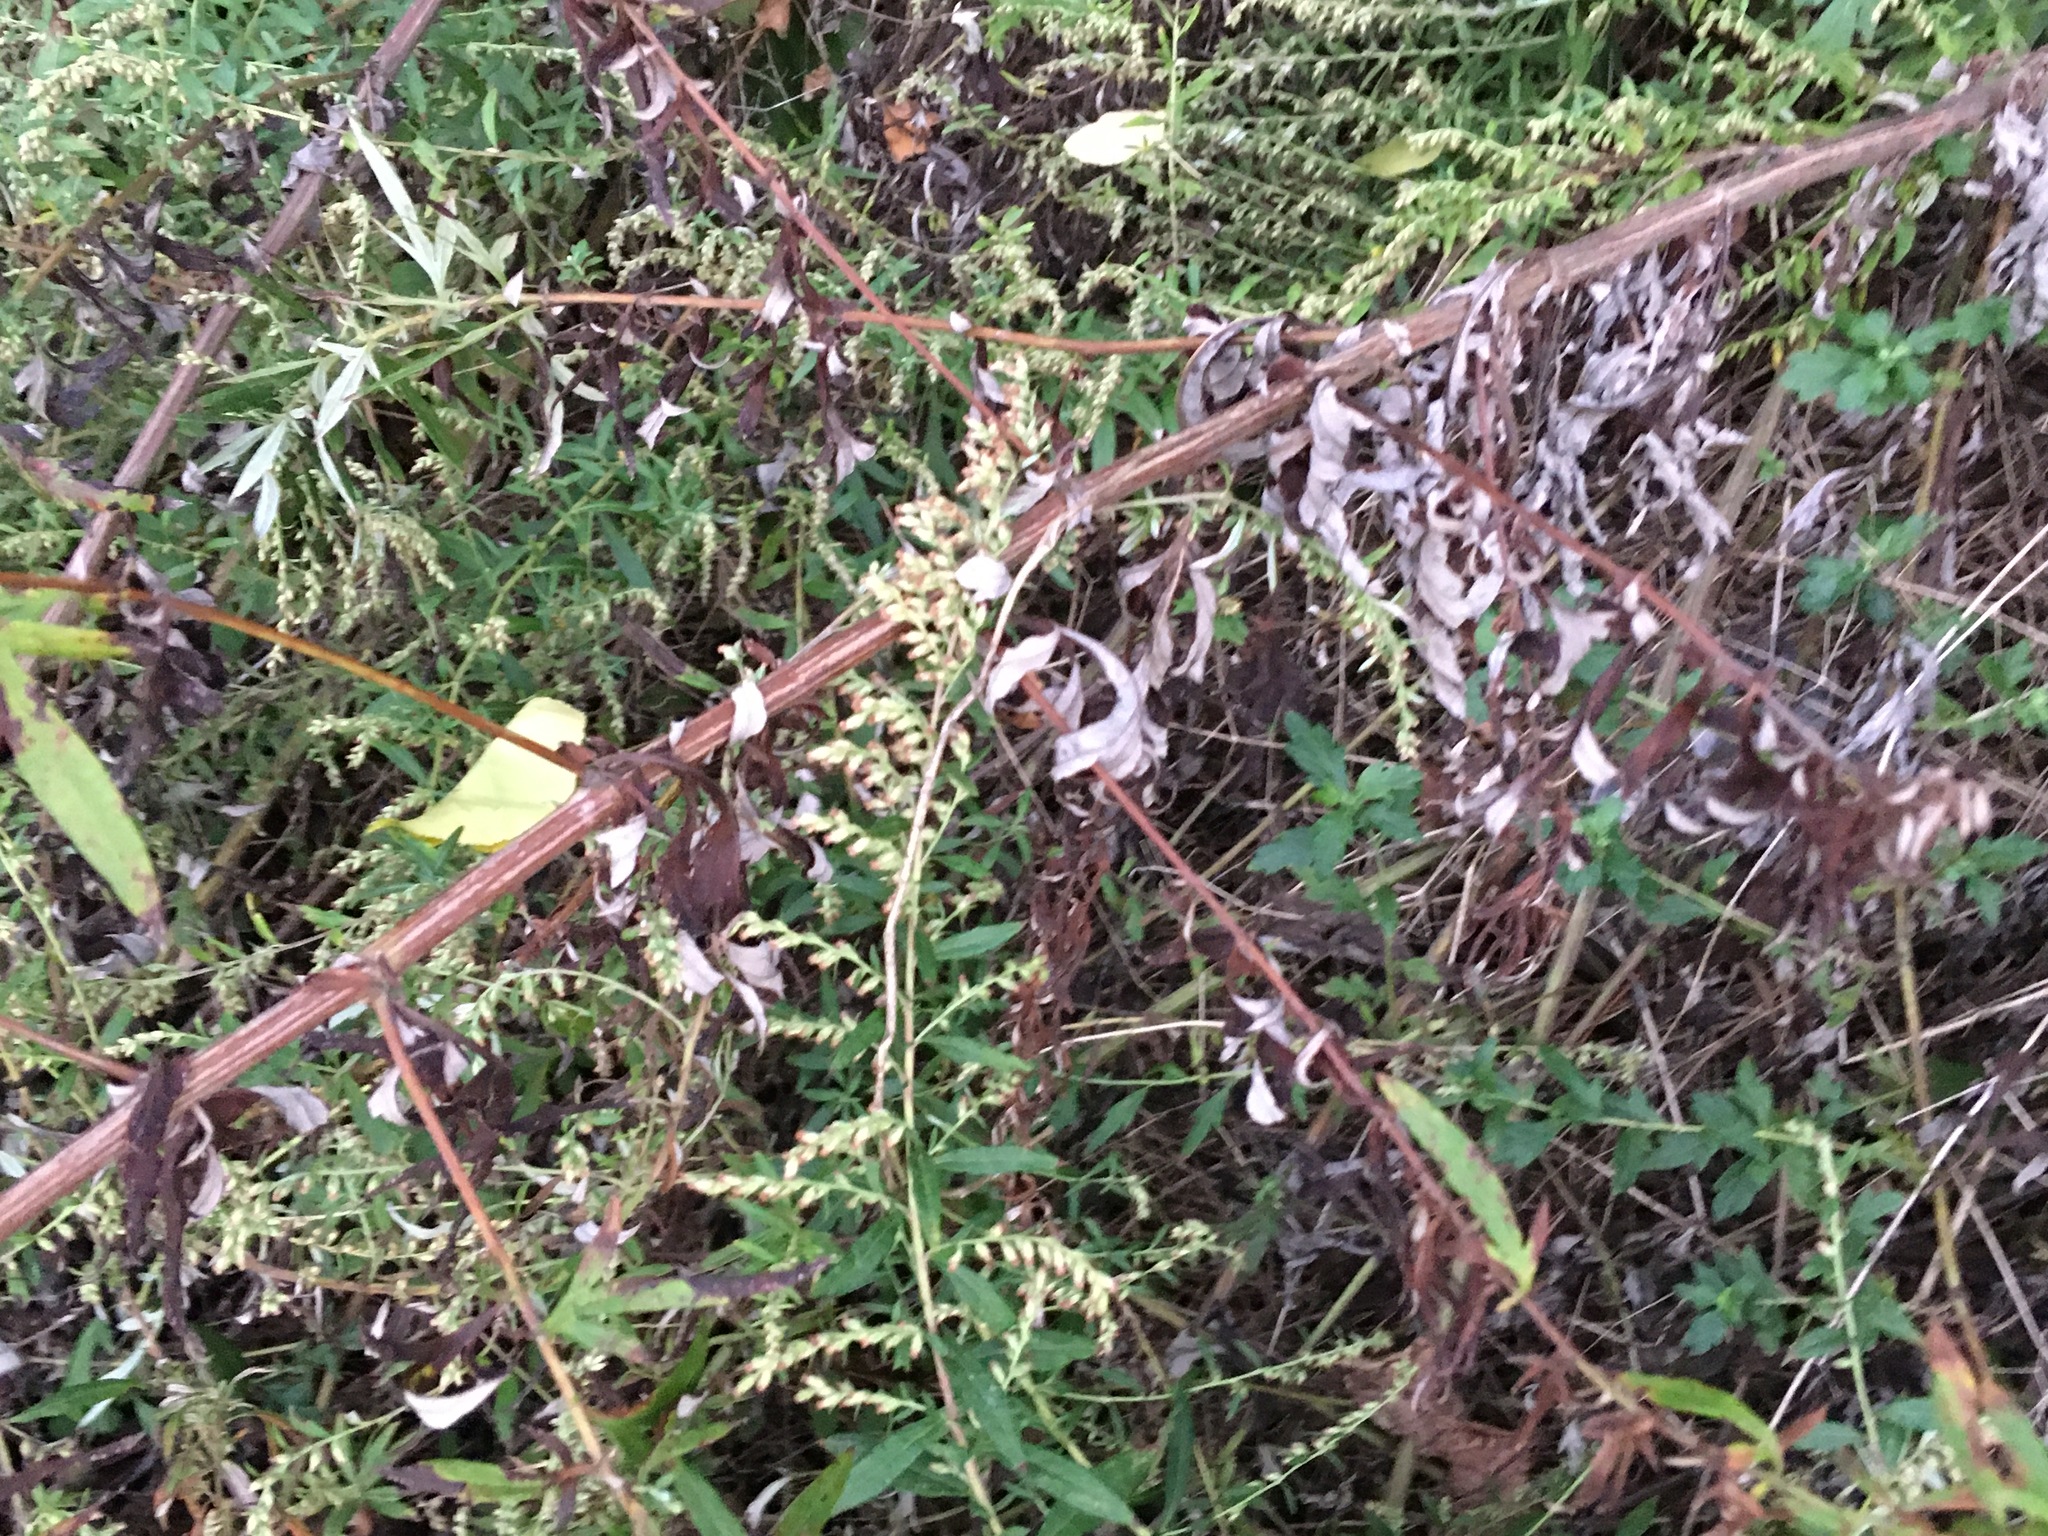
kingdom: Plantae
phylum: Tracheophyta
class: Magnoliopsida
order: Asterales
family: Asteraceae
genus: Artemisia
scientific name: Artemisia vulgaris
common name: Mugwort
